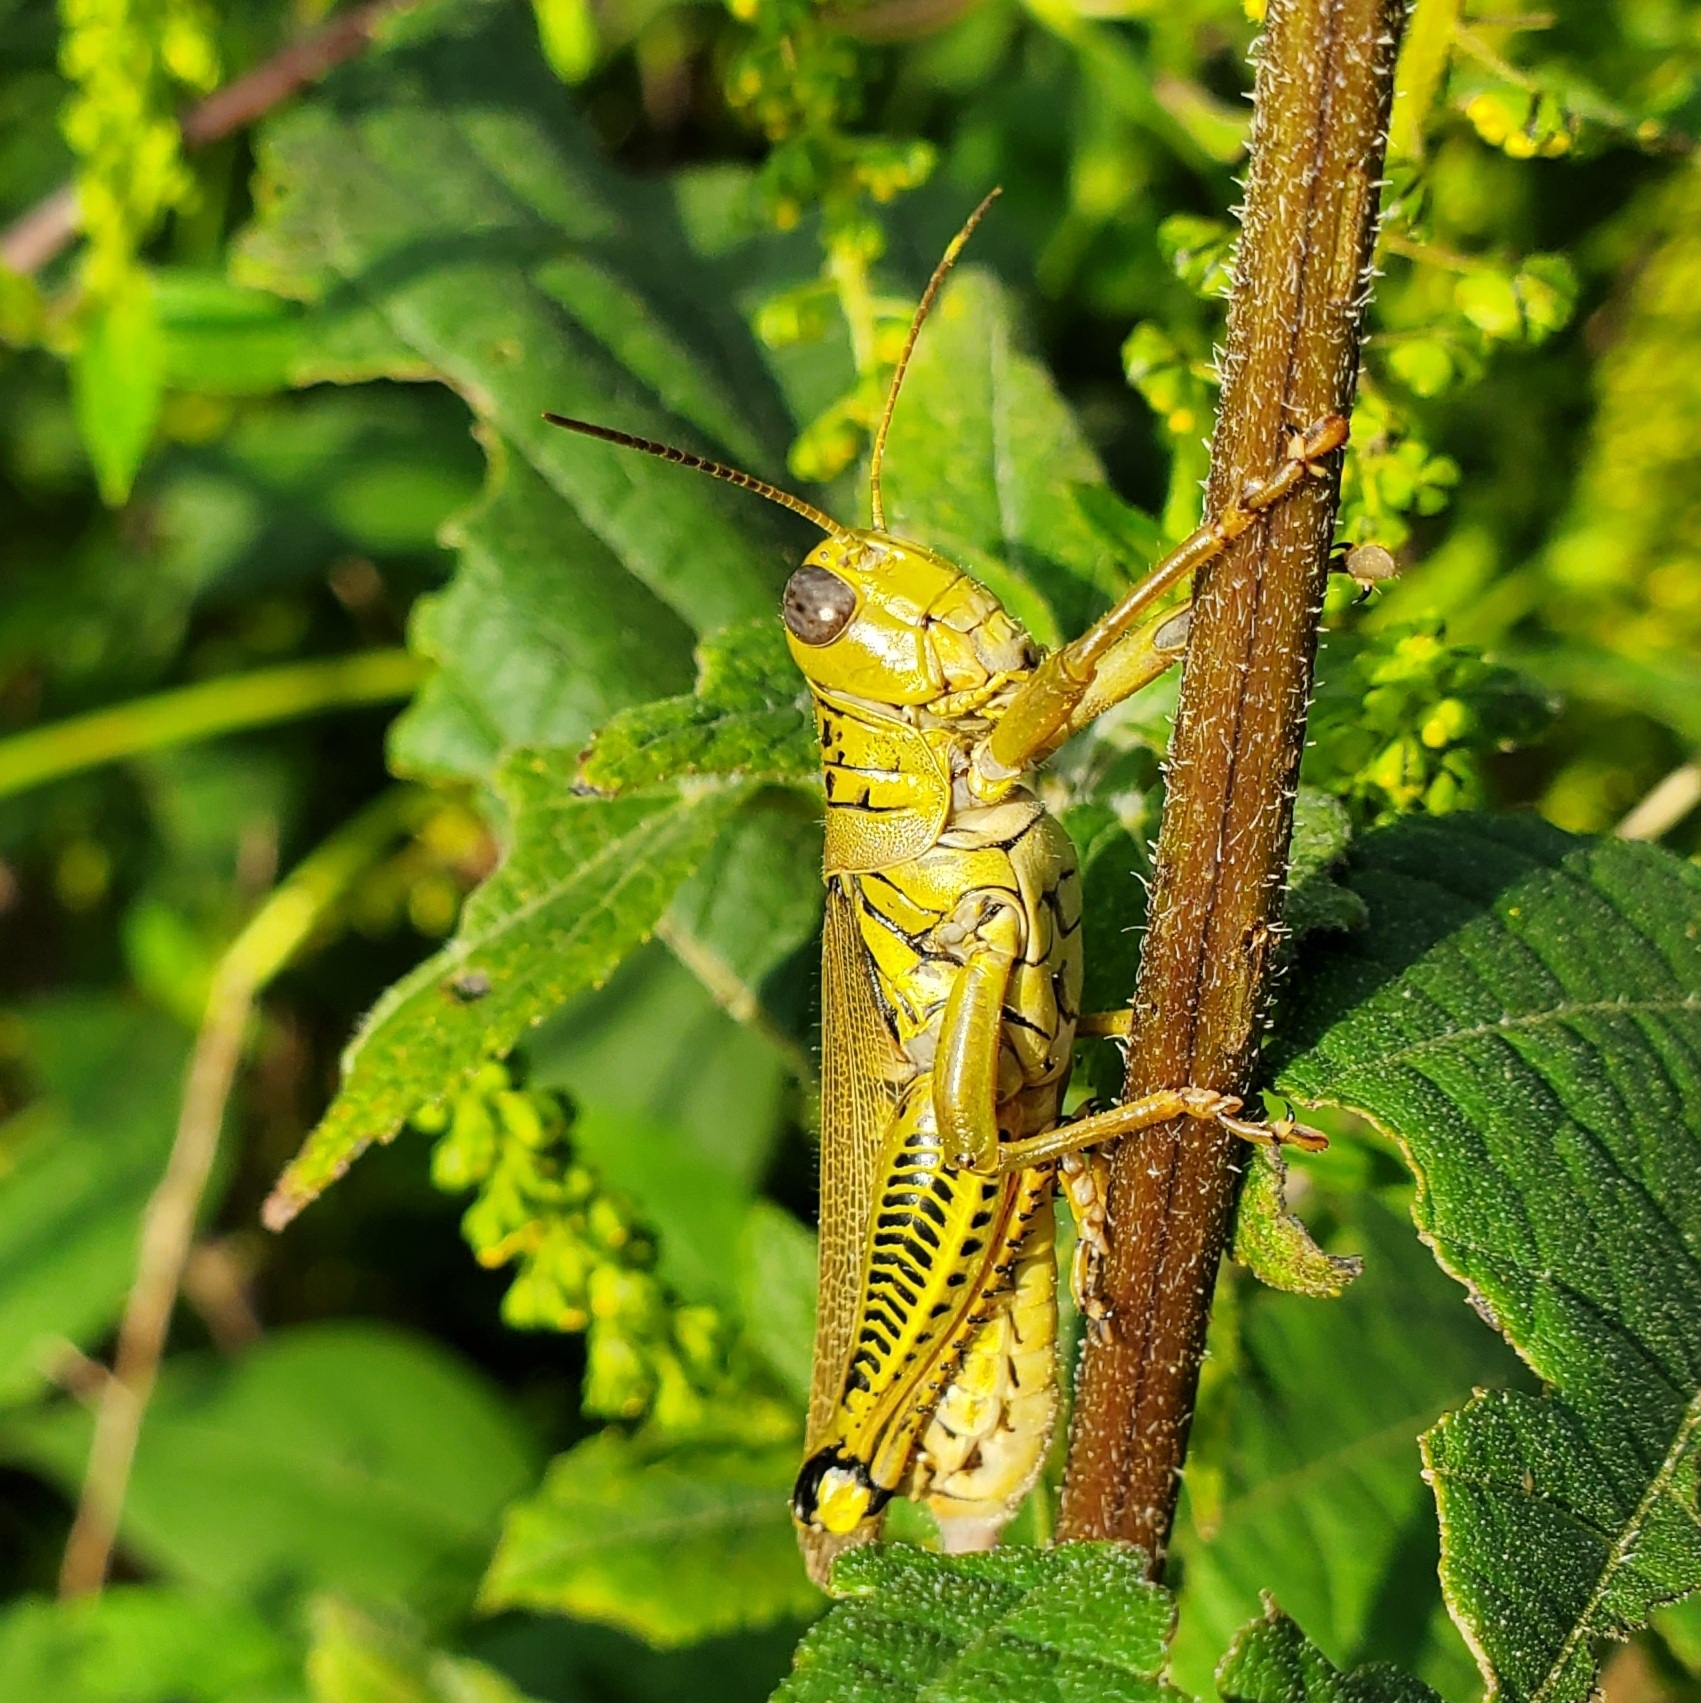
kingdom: Animalia
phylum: Arthropoda
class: Insecta
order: Orthoptera
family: Acrididae
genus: Melanoplus
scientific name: Melanoplus differentialis
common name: Differential grasshopper
